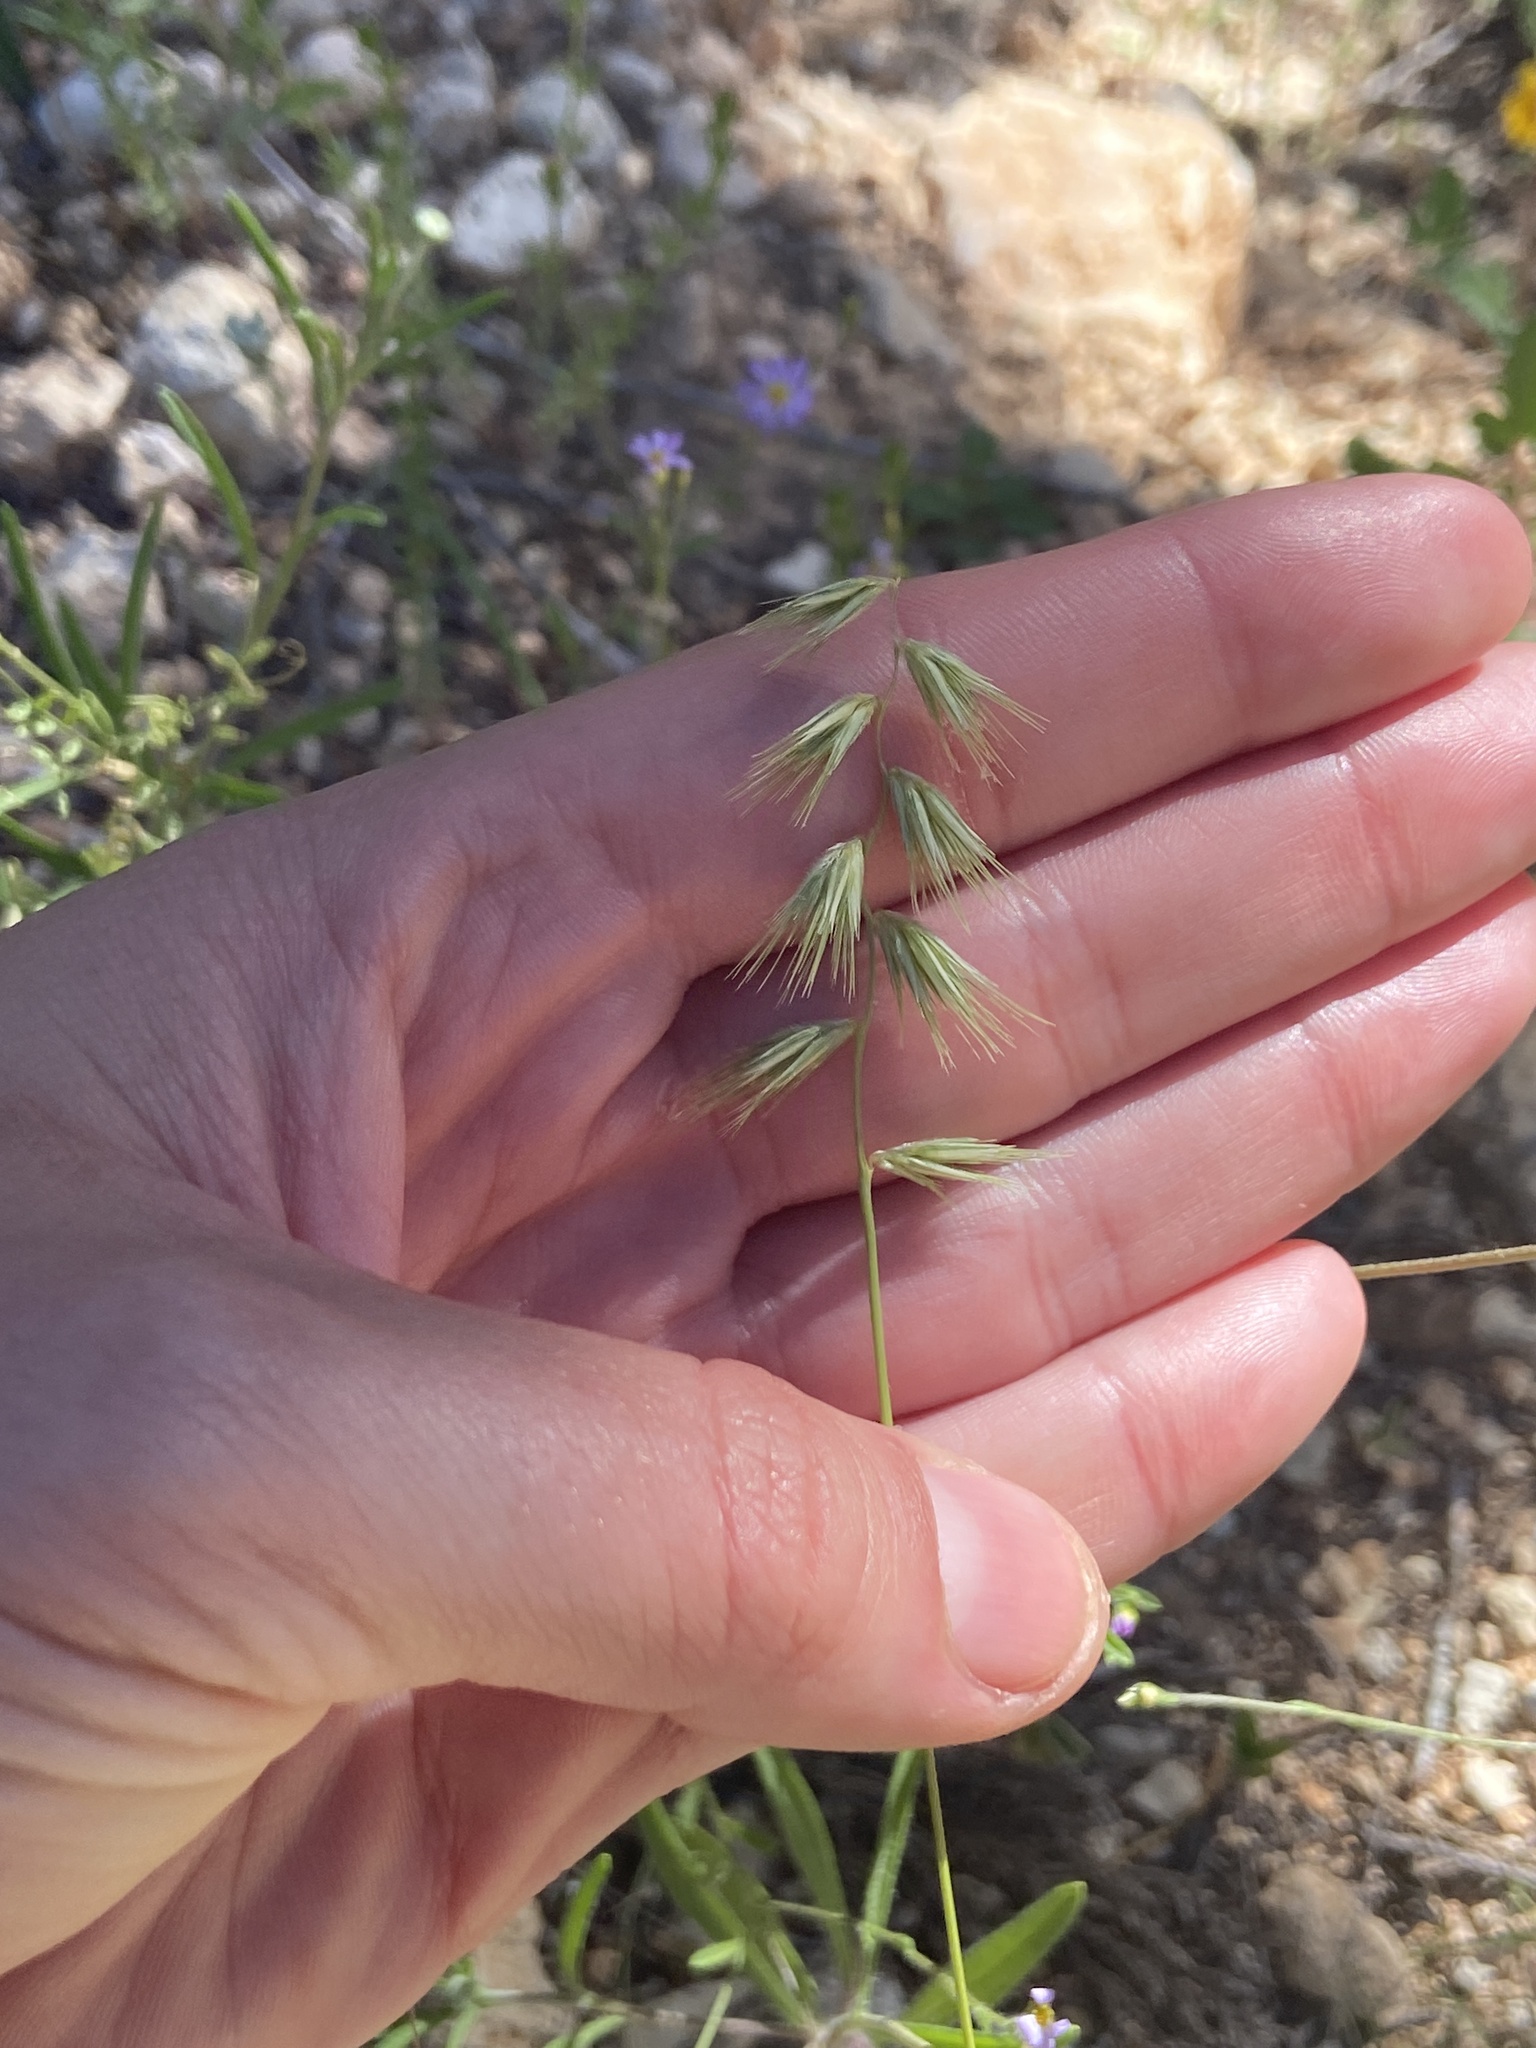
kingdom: Plantae
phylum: Tracheophyta
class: Liliopsida
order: Poales
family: Poaceae
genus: Bouteloua
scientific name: Bouteloua rigidiseta
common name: Texas grama
